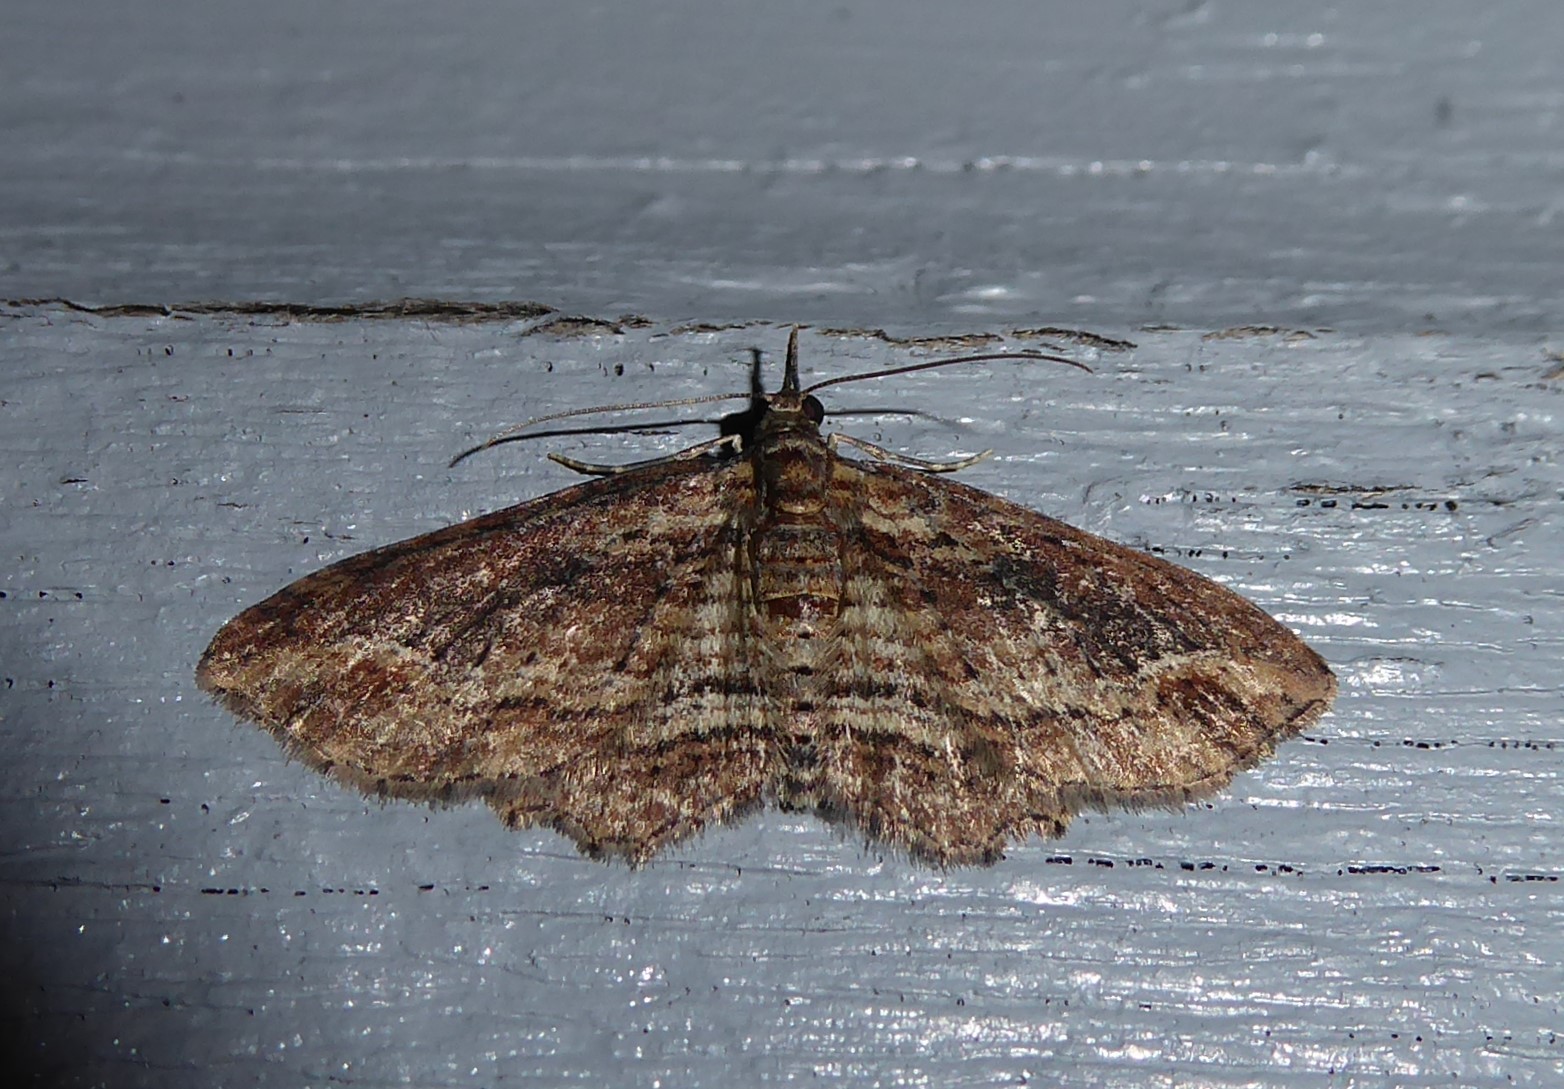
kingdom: Animalia
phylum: Arthropoda
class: Insecta
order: Lepidoptera
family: Geometridae
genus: Chloroclystis
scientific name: Chloroclystis filata
